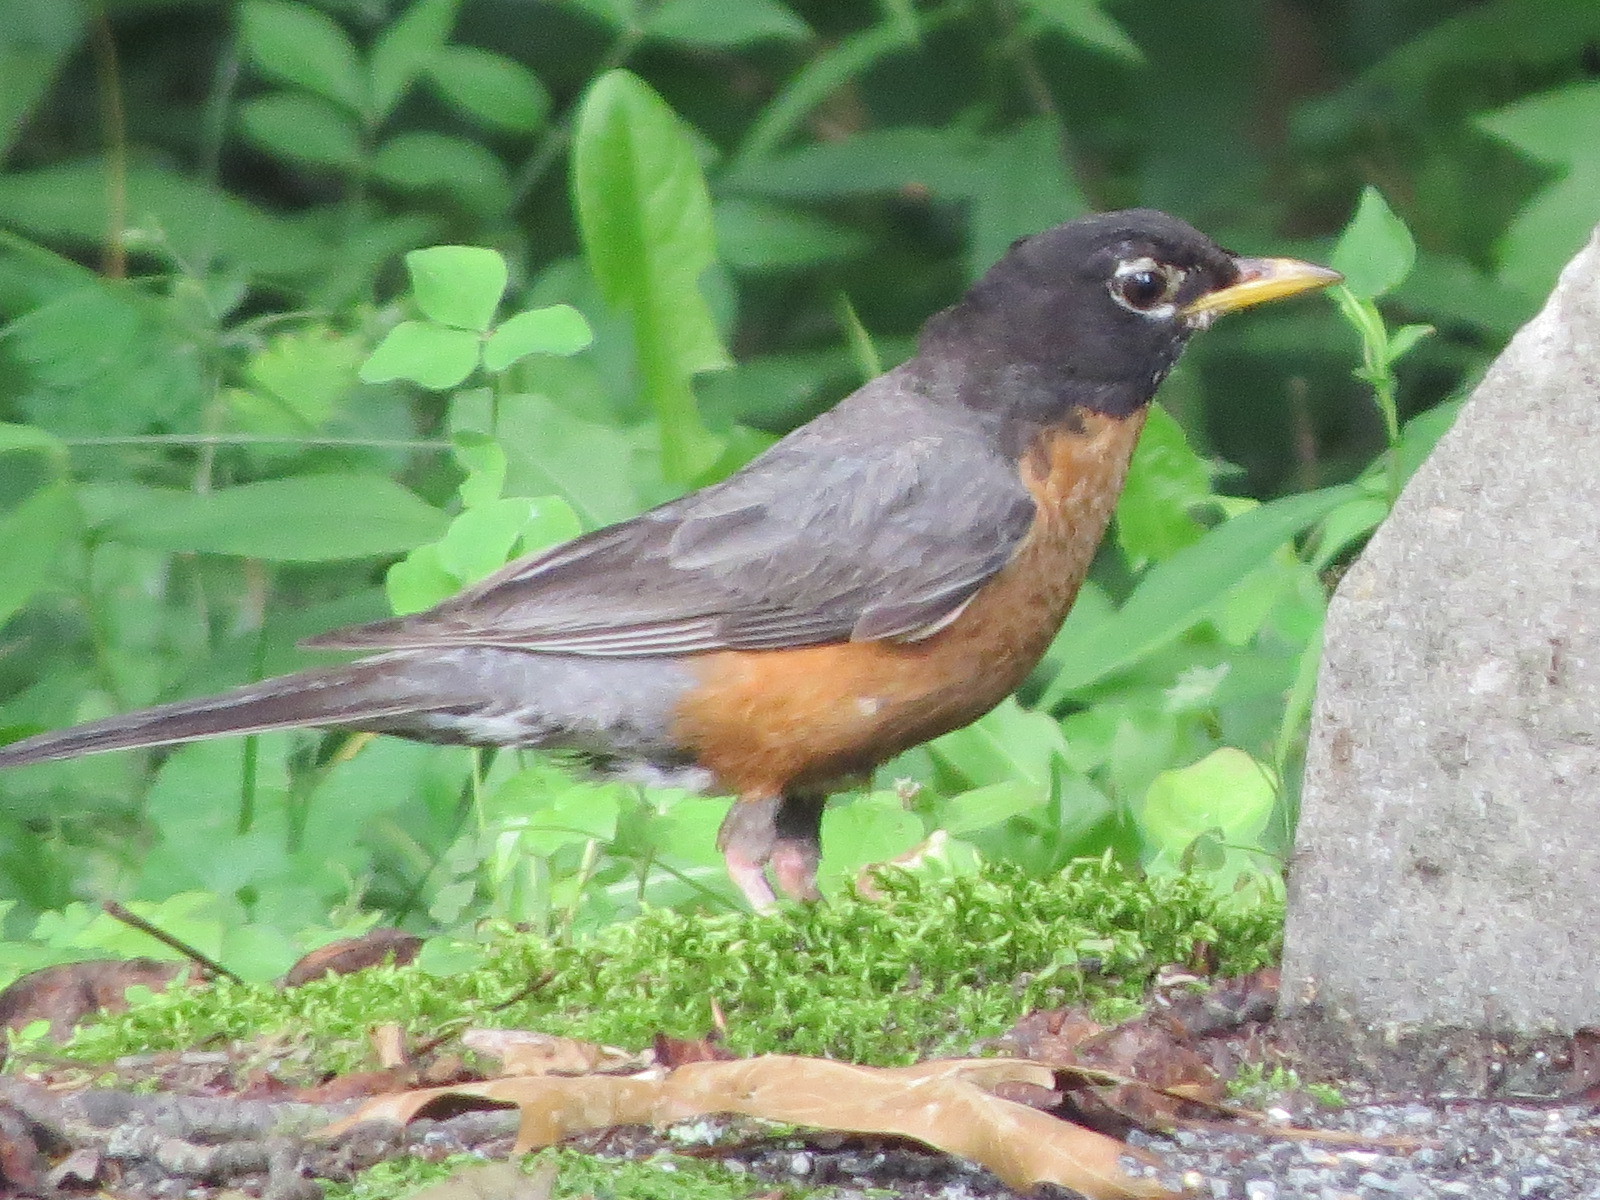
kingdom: Animalia
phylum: Chordata
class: Aves
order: Passeriformes
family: Turdidae
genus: Turdus
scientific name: Turdus migratorius
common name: American robin
